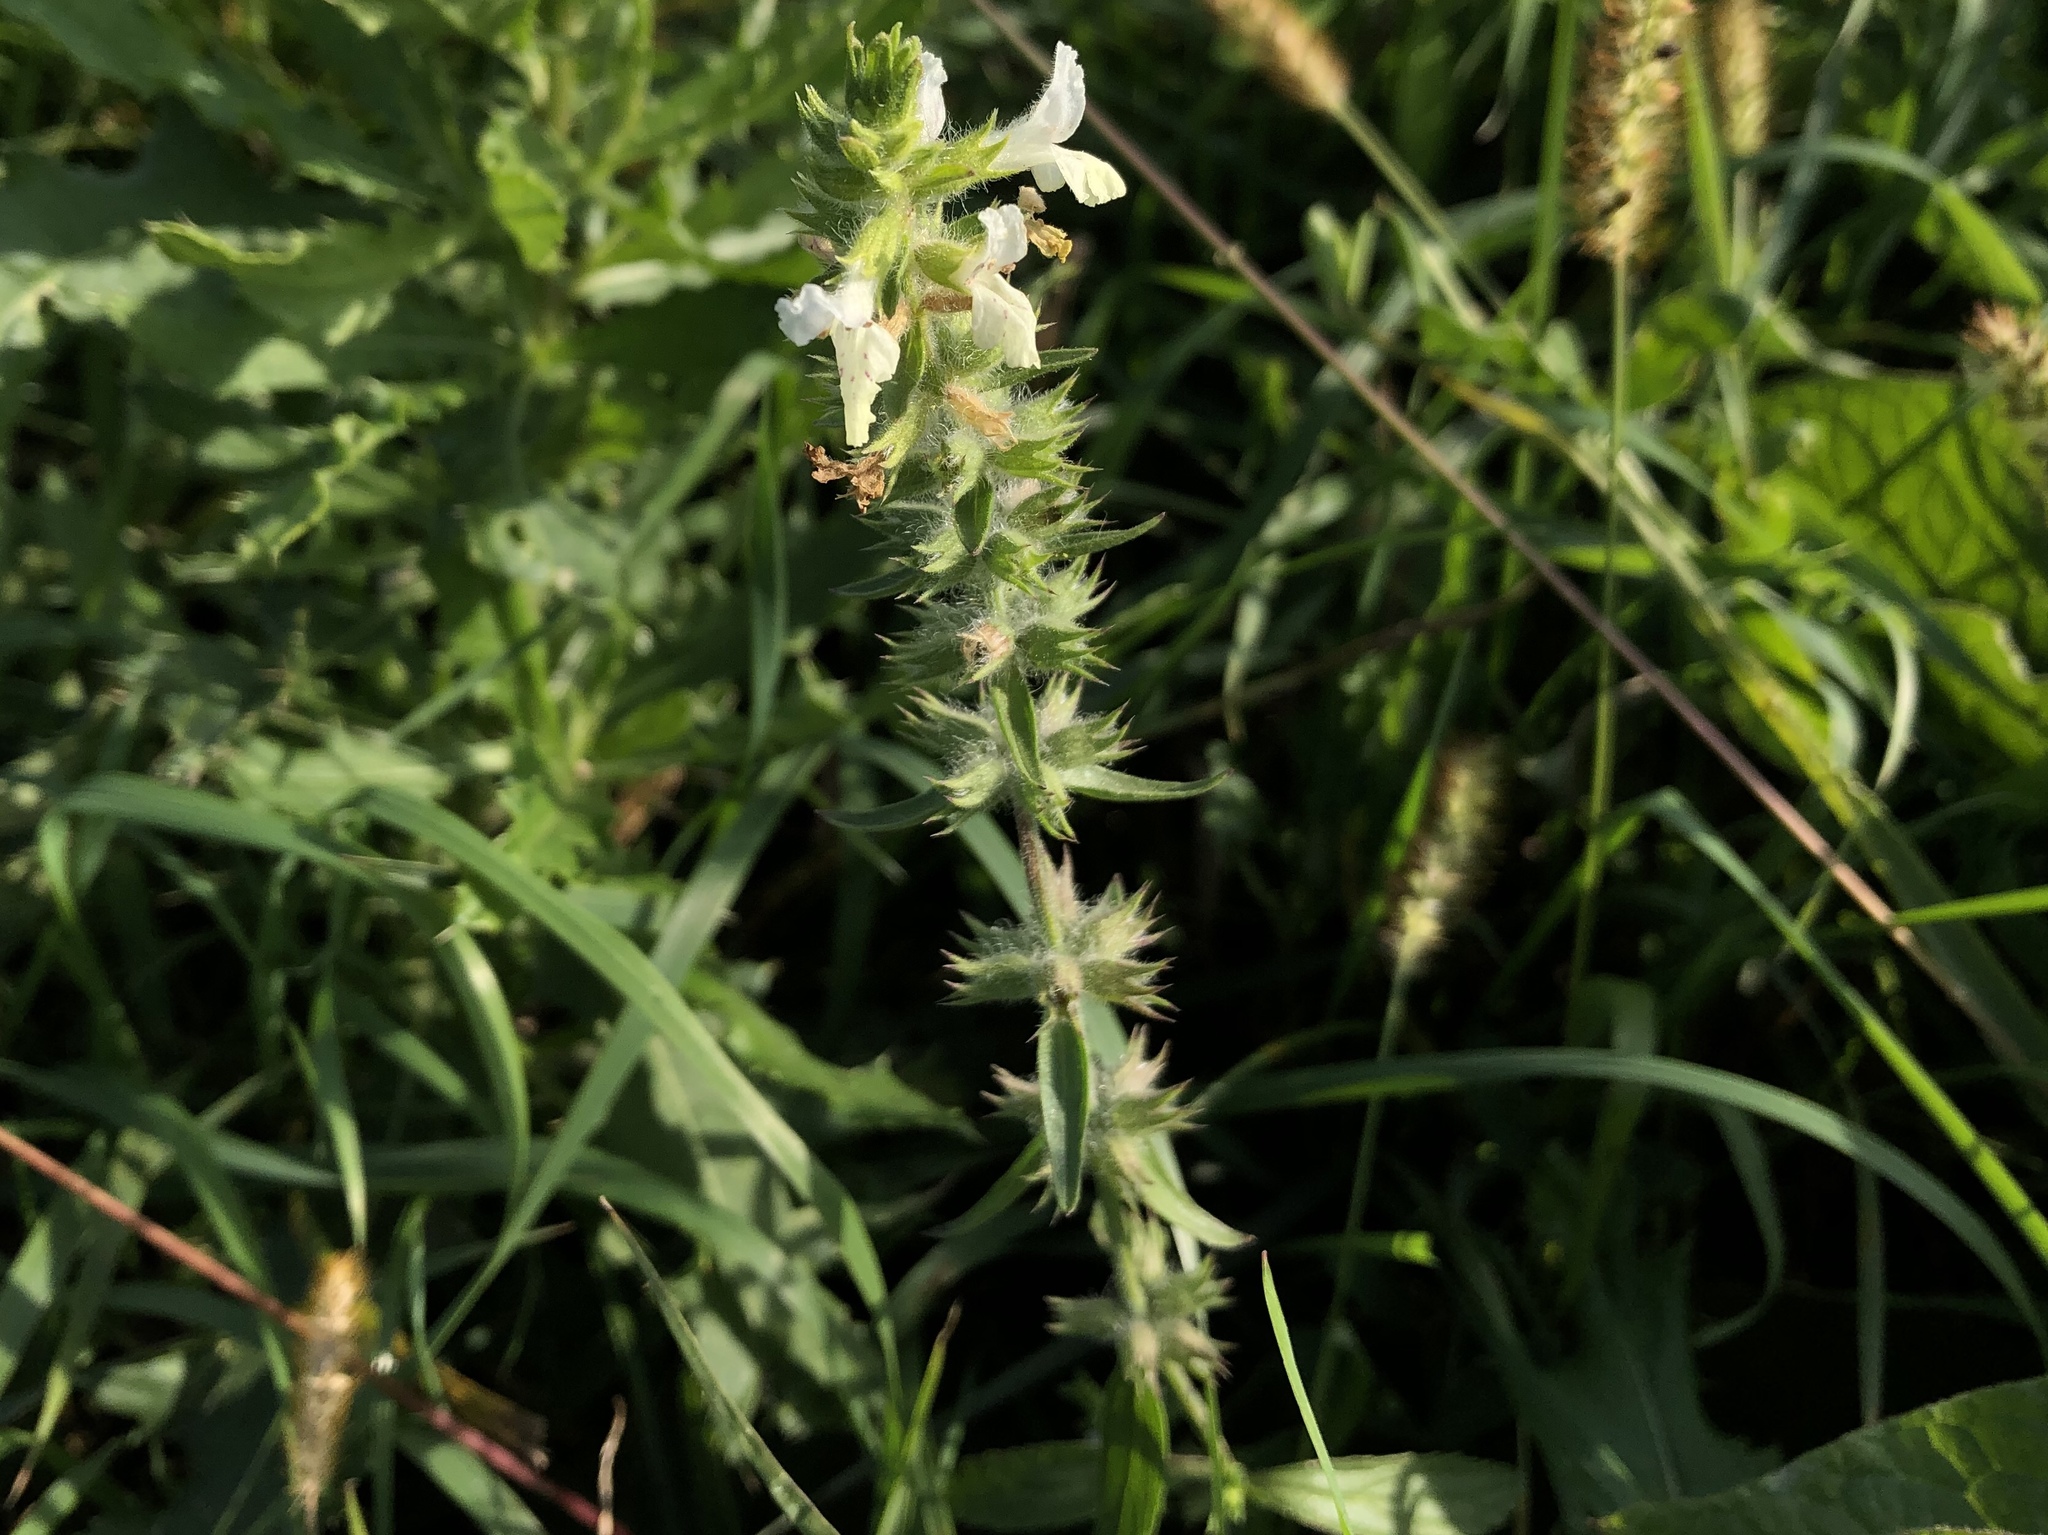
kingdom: Plantae
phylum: Tracheophyta
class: Magnoliopsida
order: Lamiales
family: Lamiaceae
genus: Stachys
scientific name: Stachys annua
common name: Annual yellow-woundwort
